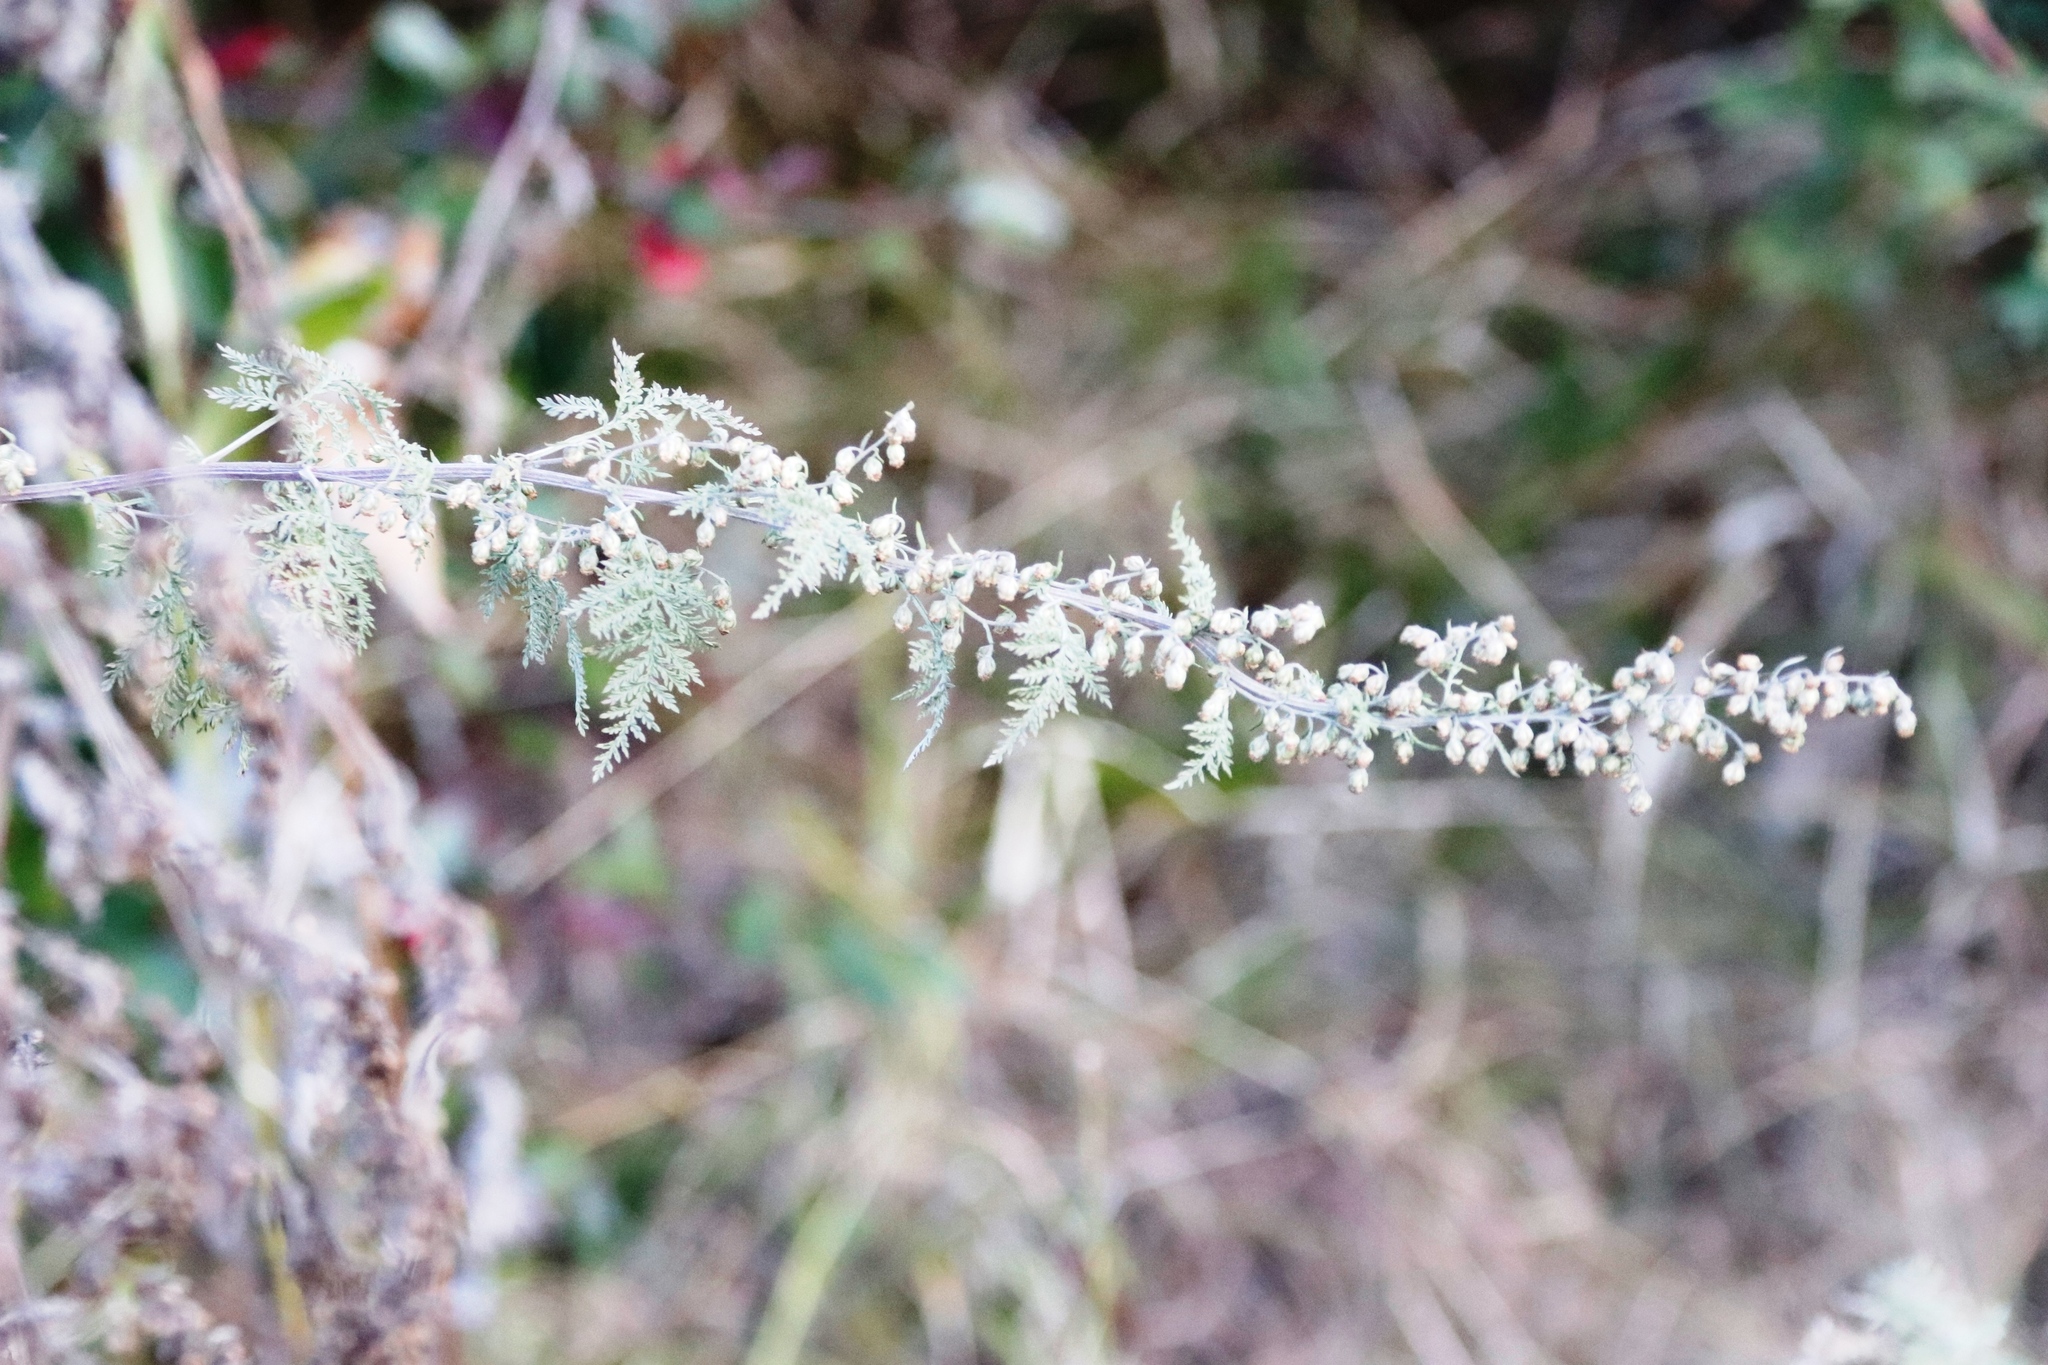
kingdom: Plantae
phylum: Tracheophyta
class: Magnoliopsida
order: Asterales
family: Asteraceae
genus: Artemisia
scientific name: Artemisia afra
